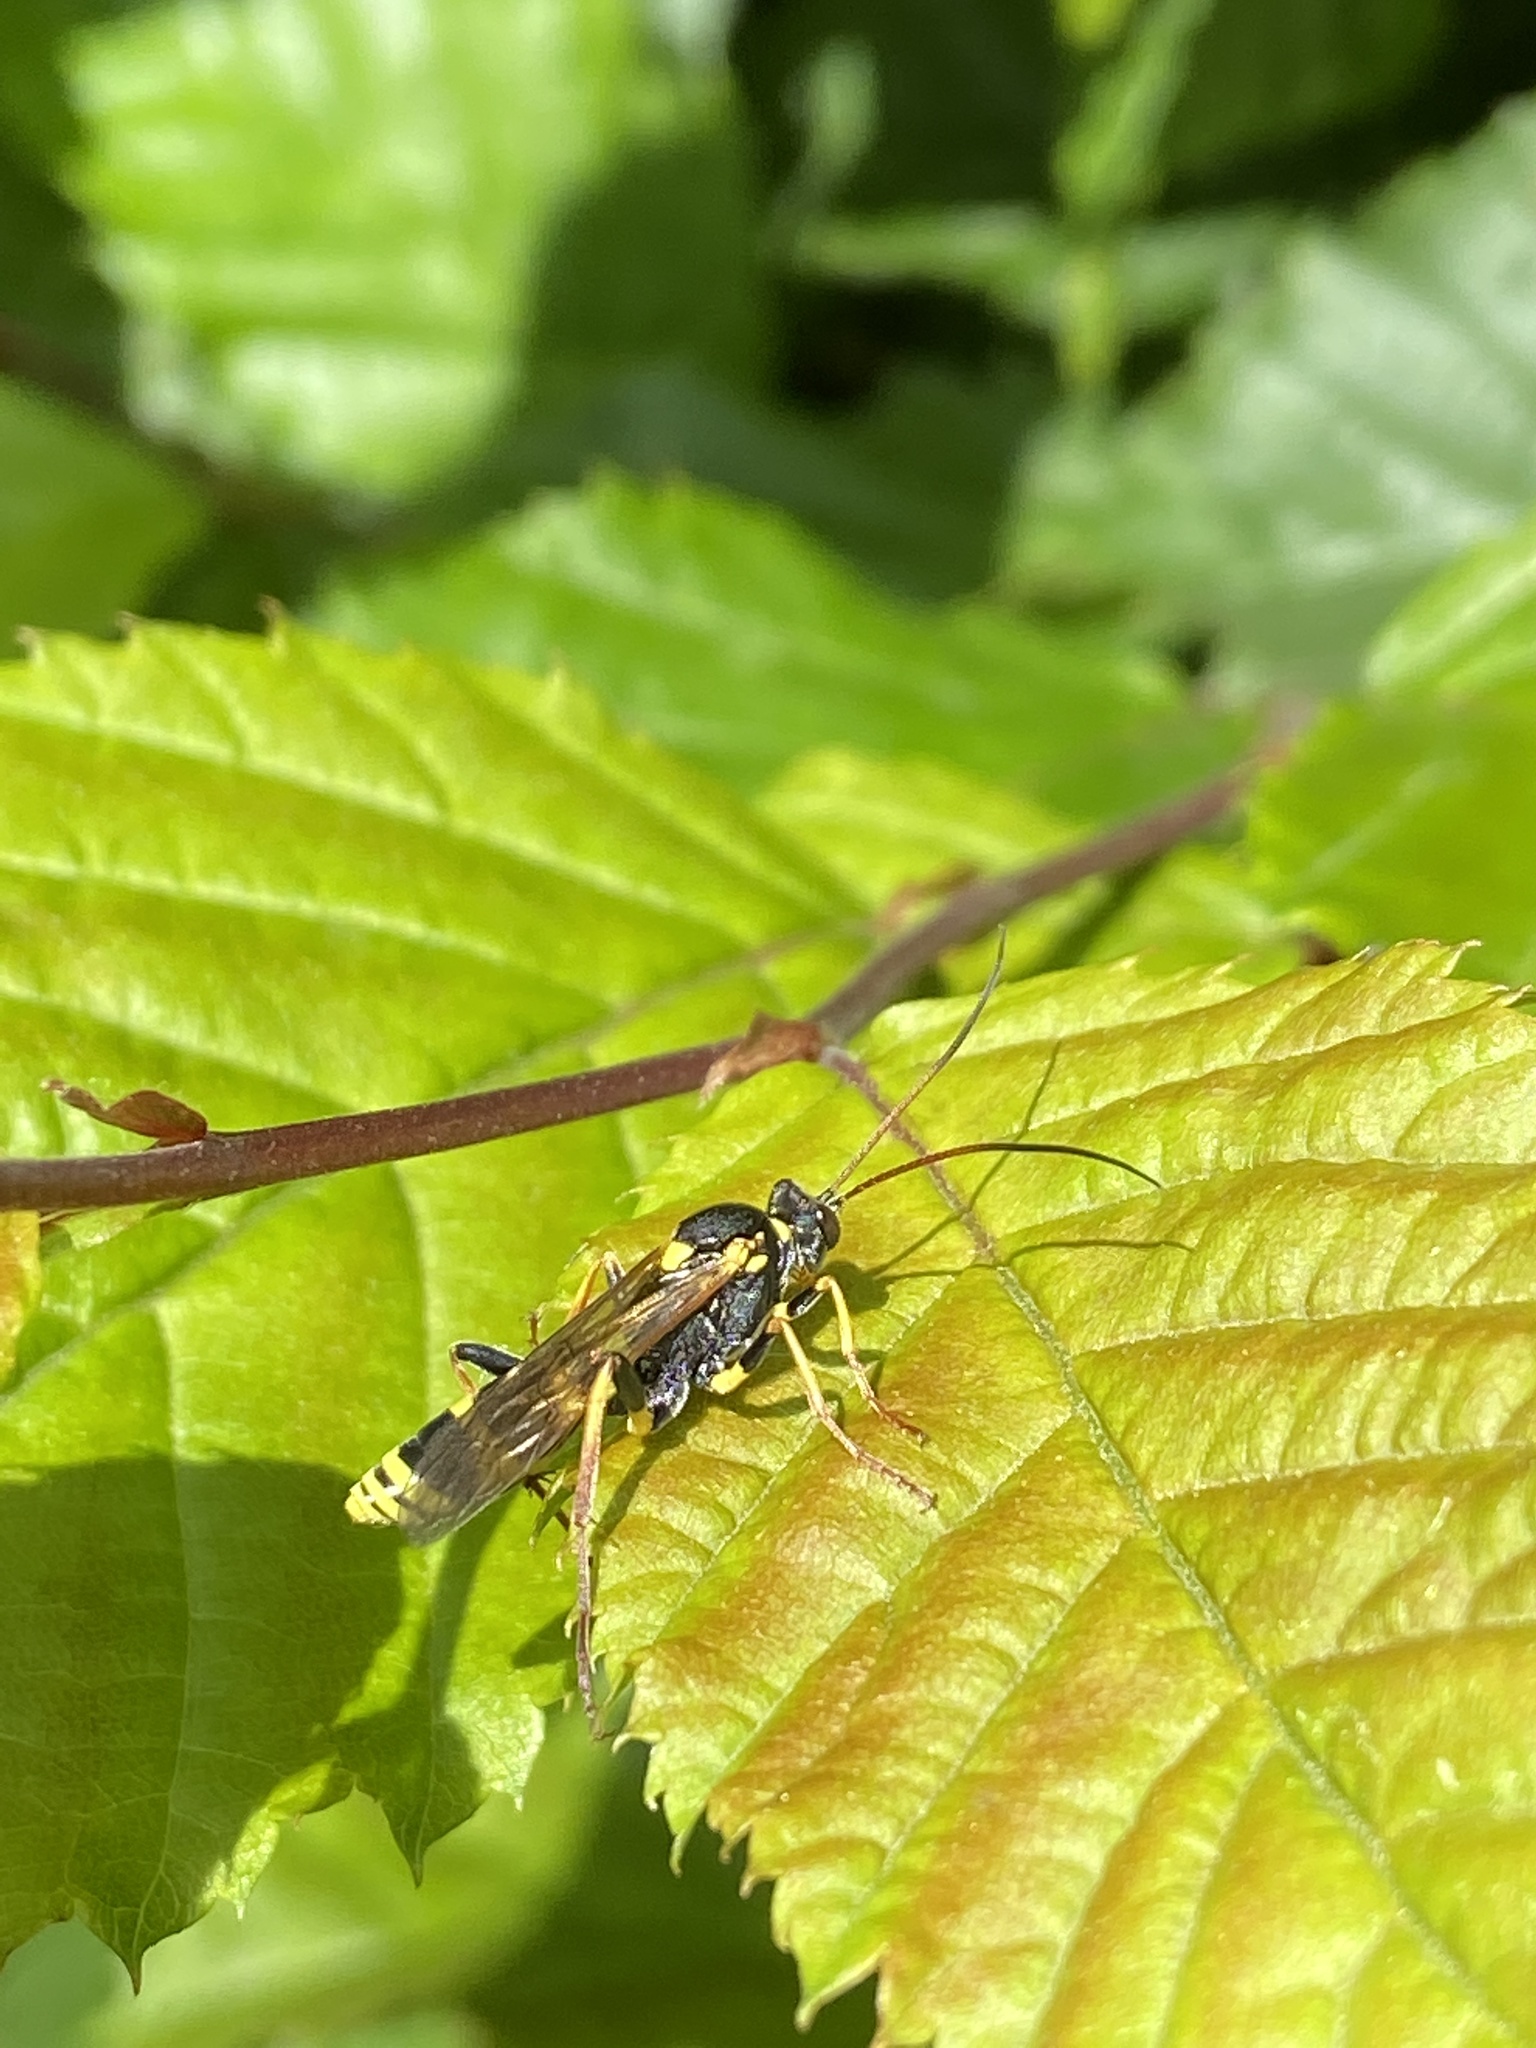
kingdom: Animalia
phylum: Arthropoda
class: Insecta
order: Hymenoptera
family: Ichneumonidae
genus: Amblyteles
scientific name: Amblyteles armatorius
